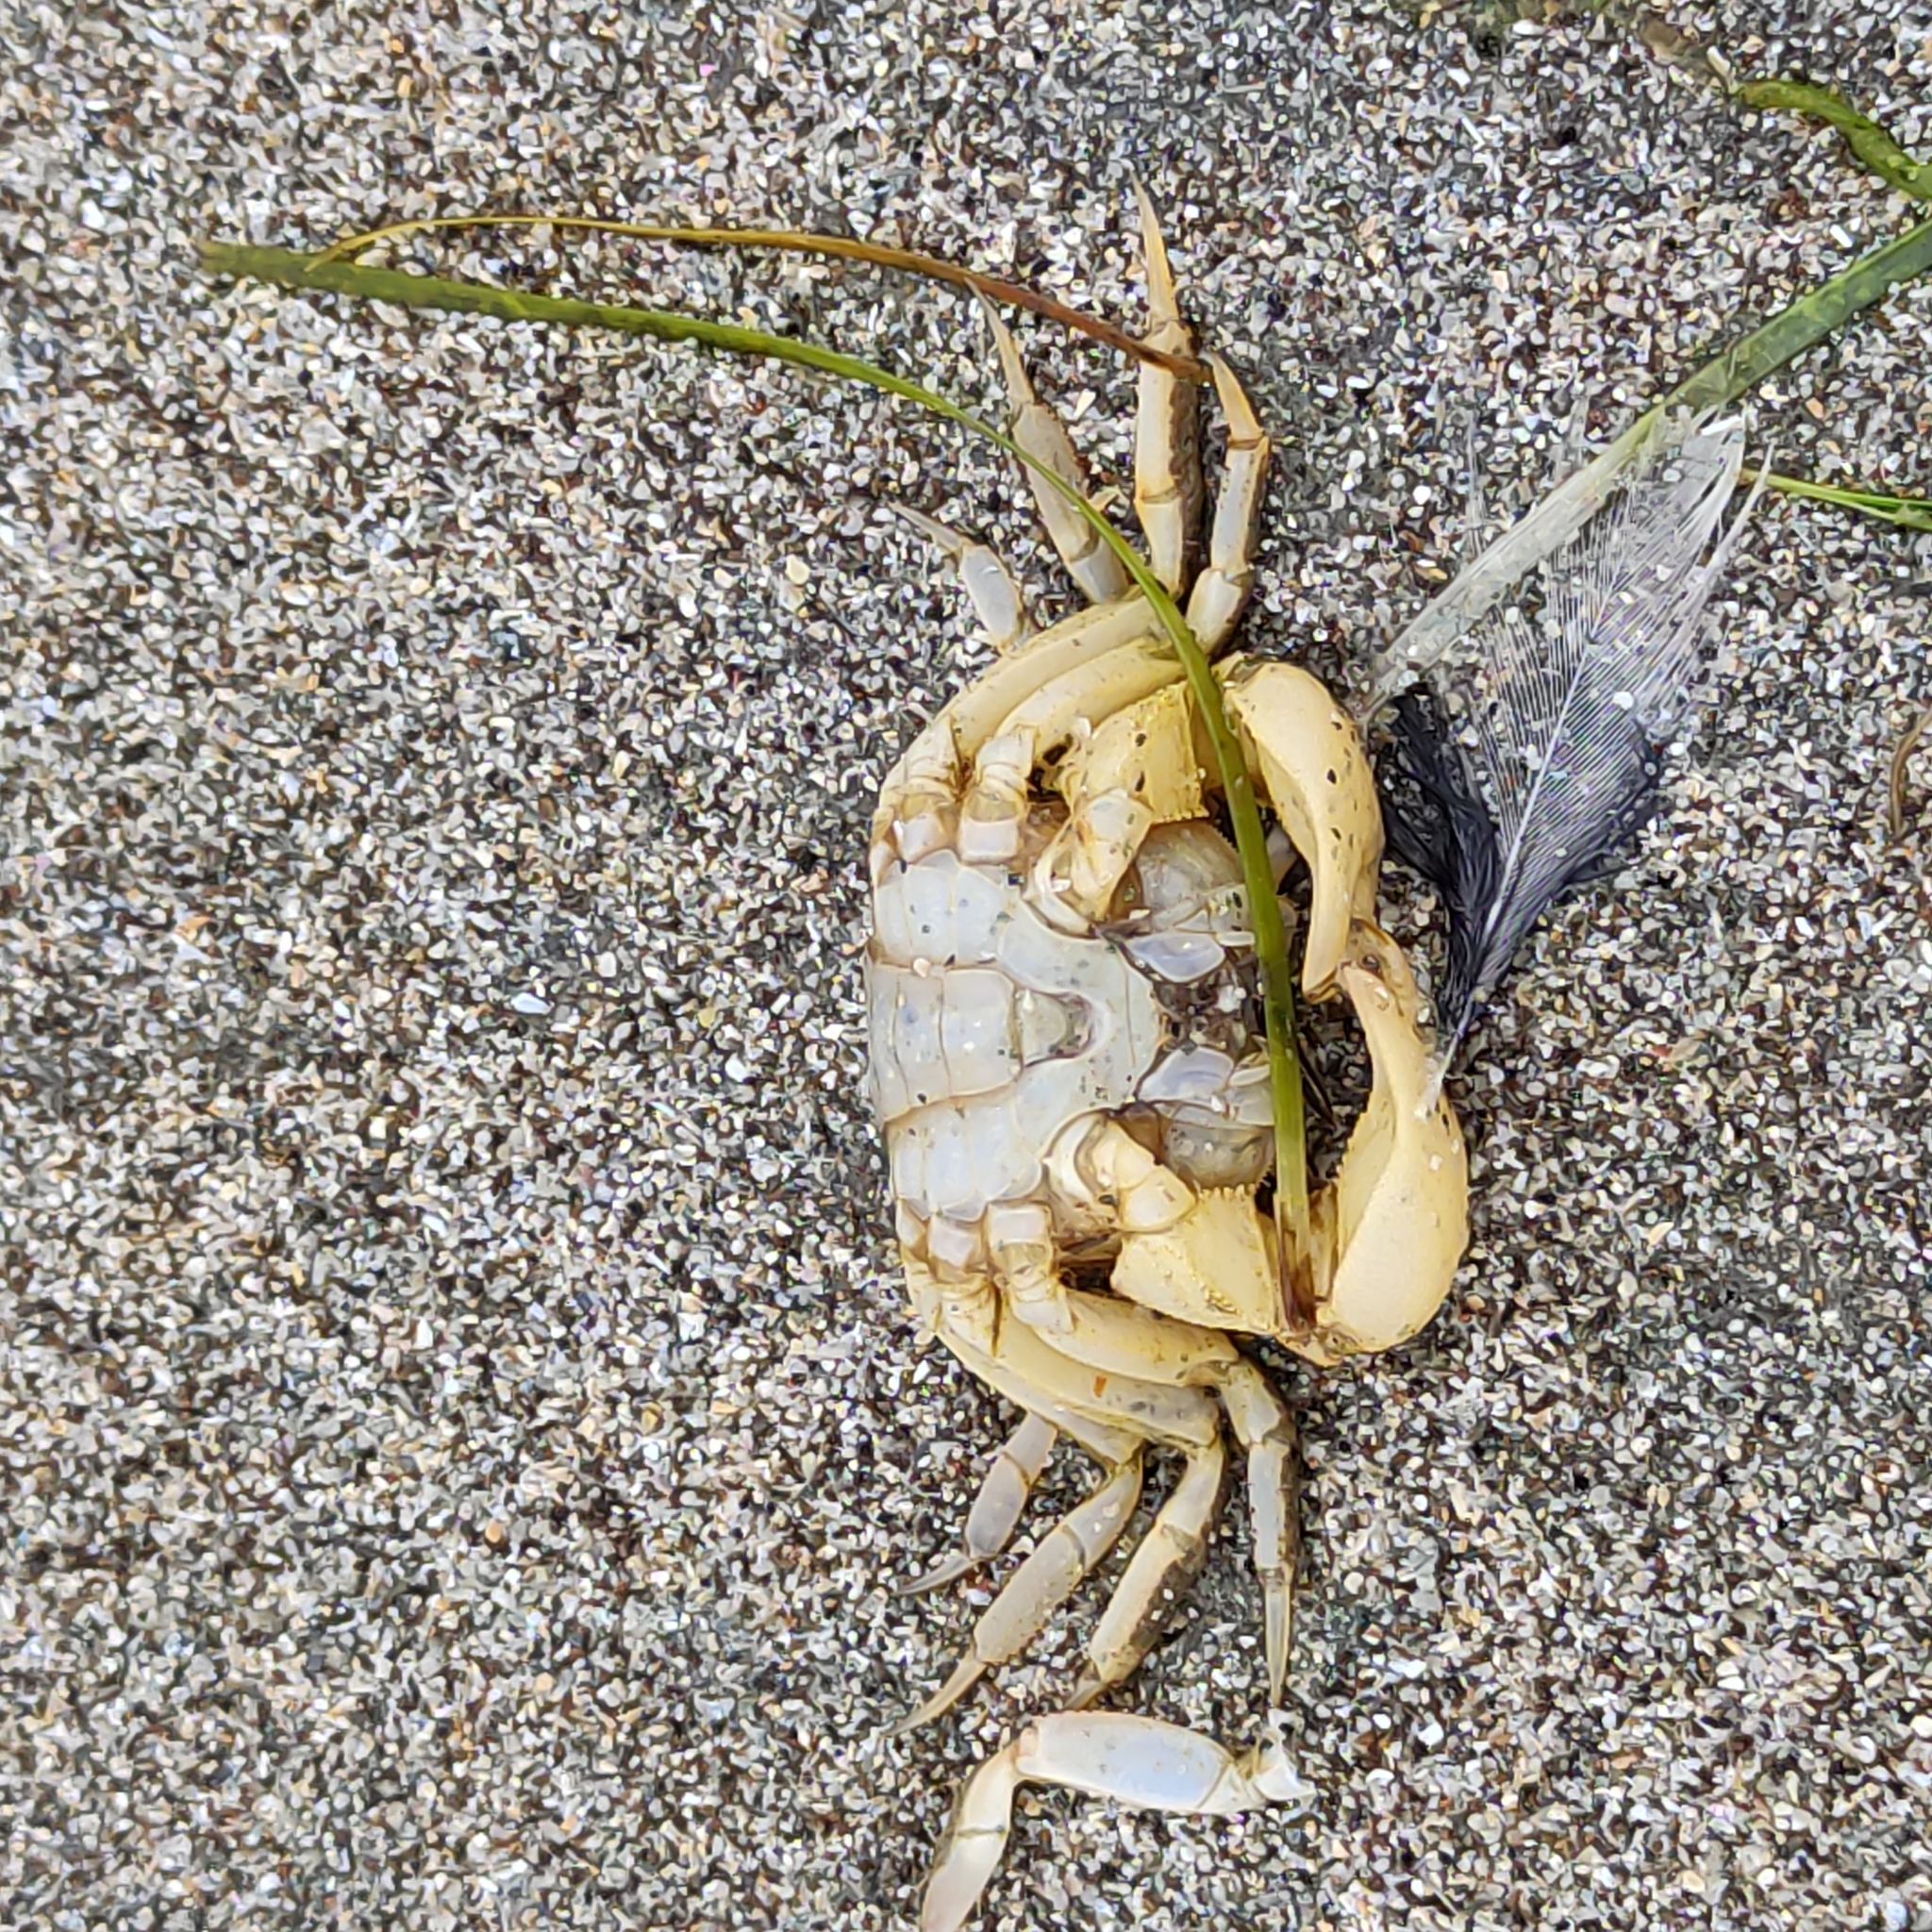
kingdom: Animalia
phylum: Arthropoda
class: Malacostraca
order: Decapoda
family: Varunidae
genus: Austrohelice
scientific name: Austrohelice crassa
